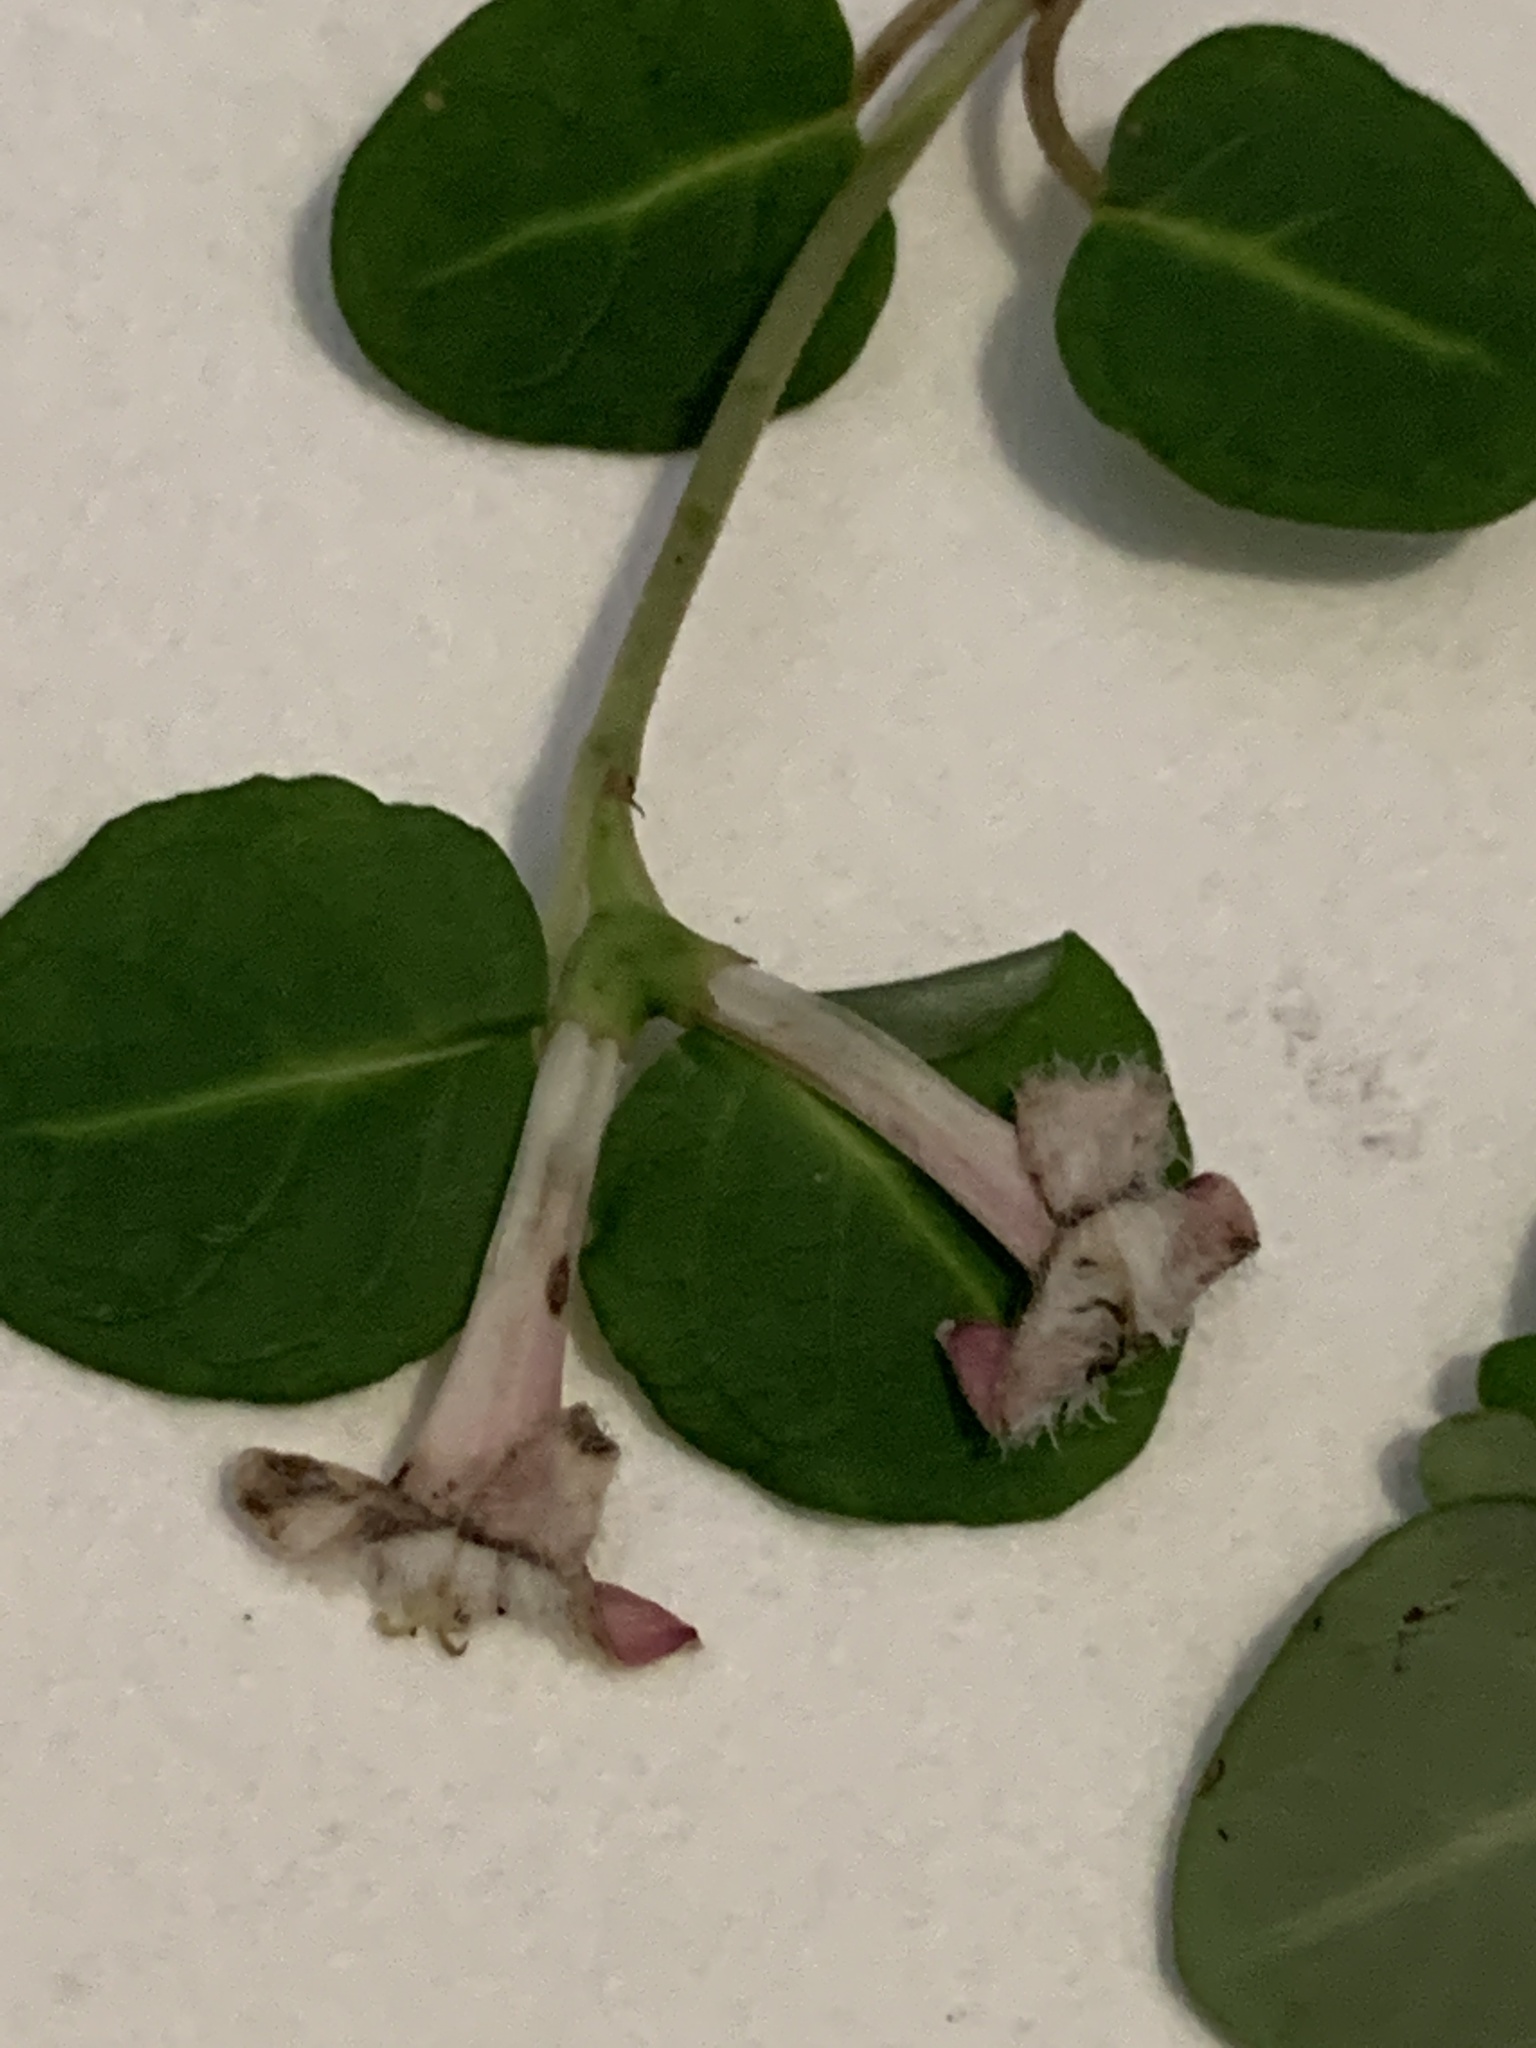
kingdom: Plantae
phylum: Tracheophyta
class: Magnoliopsida
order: Gentianales
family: Rubiaceae
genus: Mitchella
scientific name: Mitchella repens
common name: Partridge-berry
